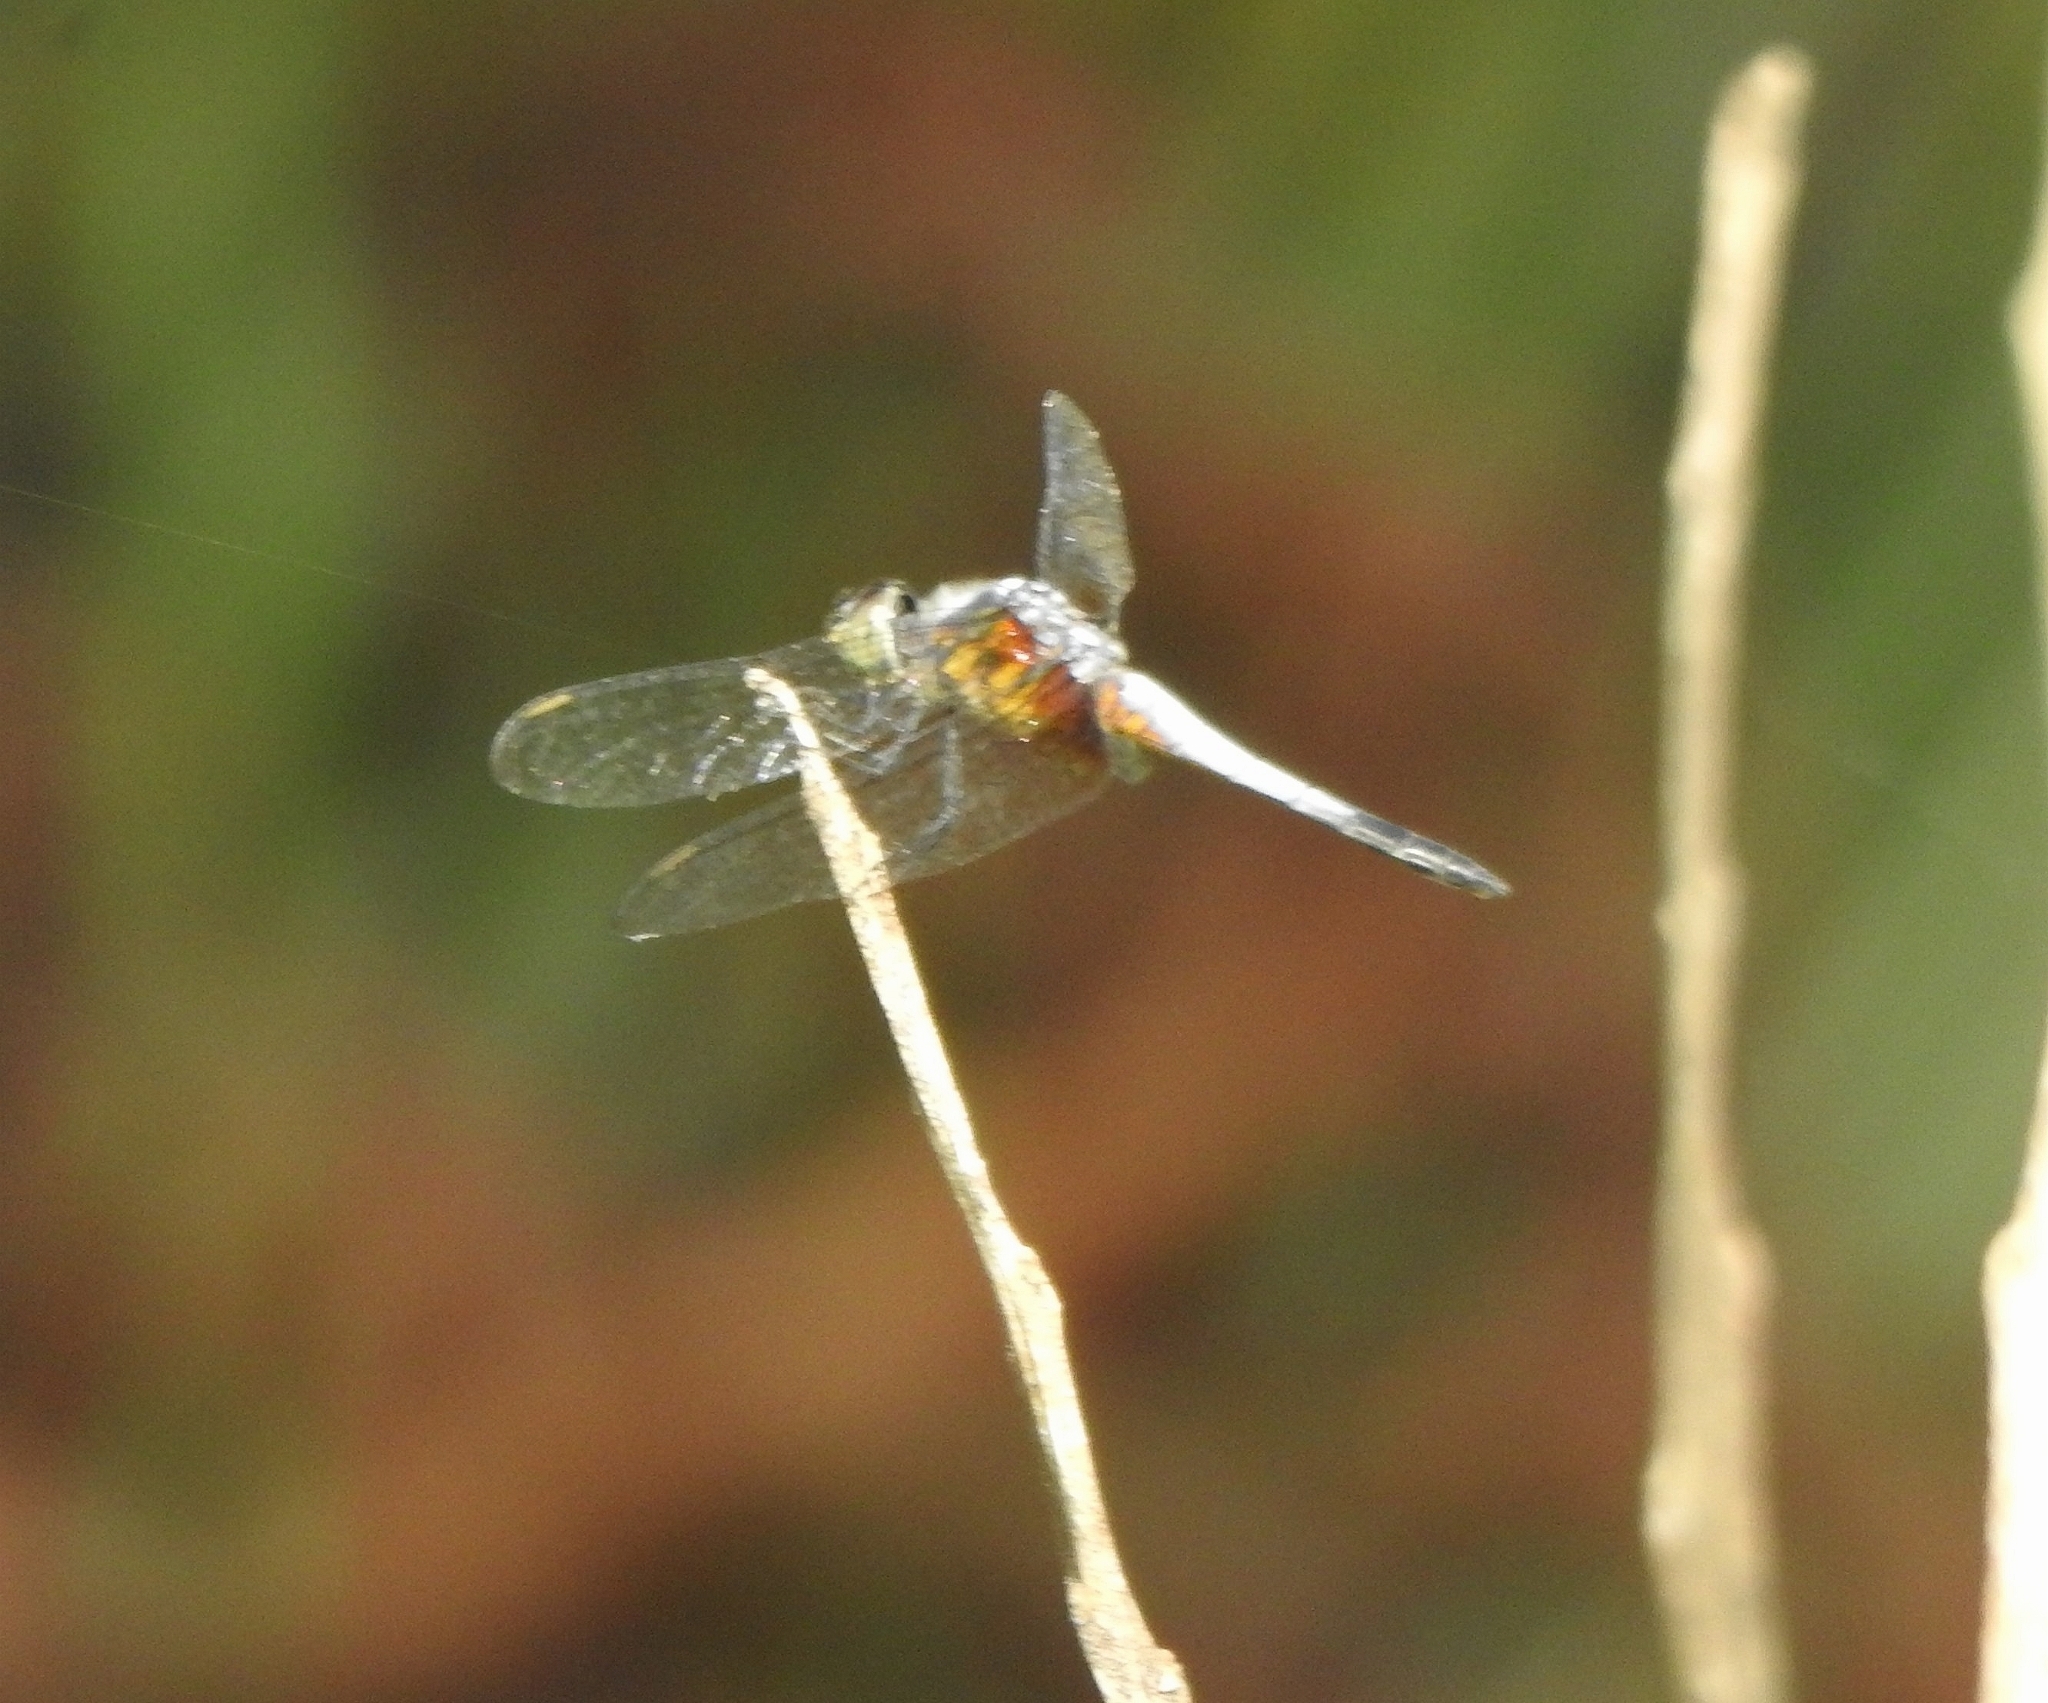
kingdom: Animalia
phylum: Arthropoda
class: Insecta
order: Odonata
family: Libellulidae
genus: Brachydiplax
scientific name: Brachydiplax chalybea
